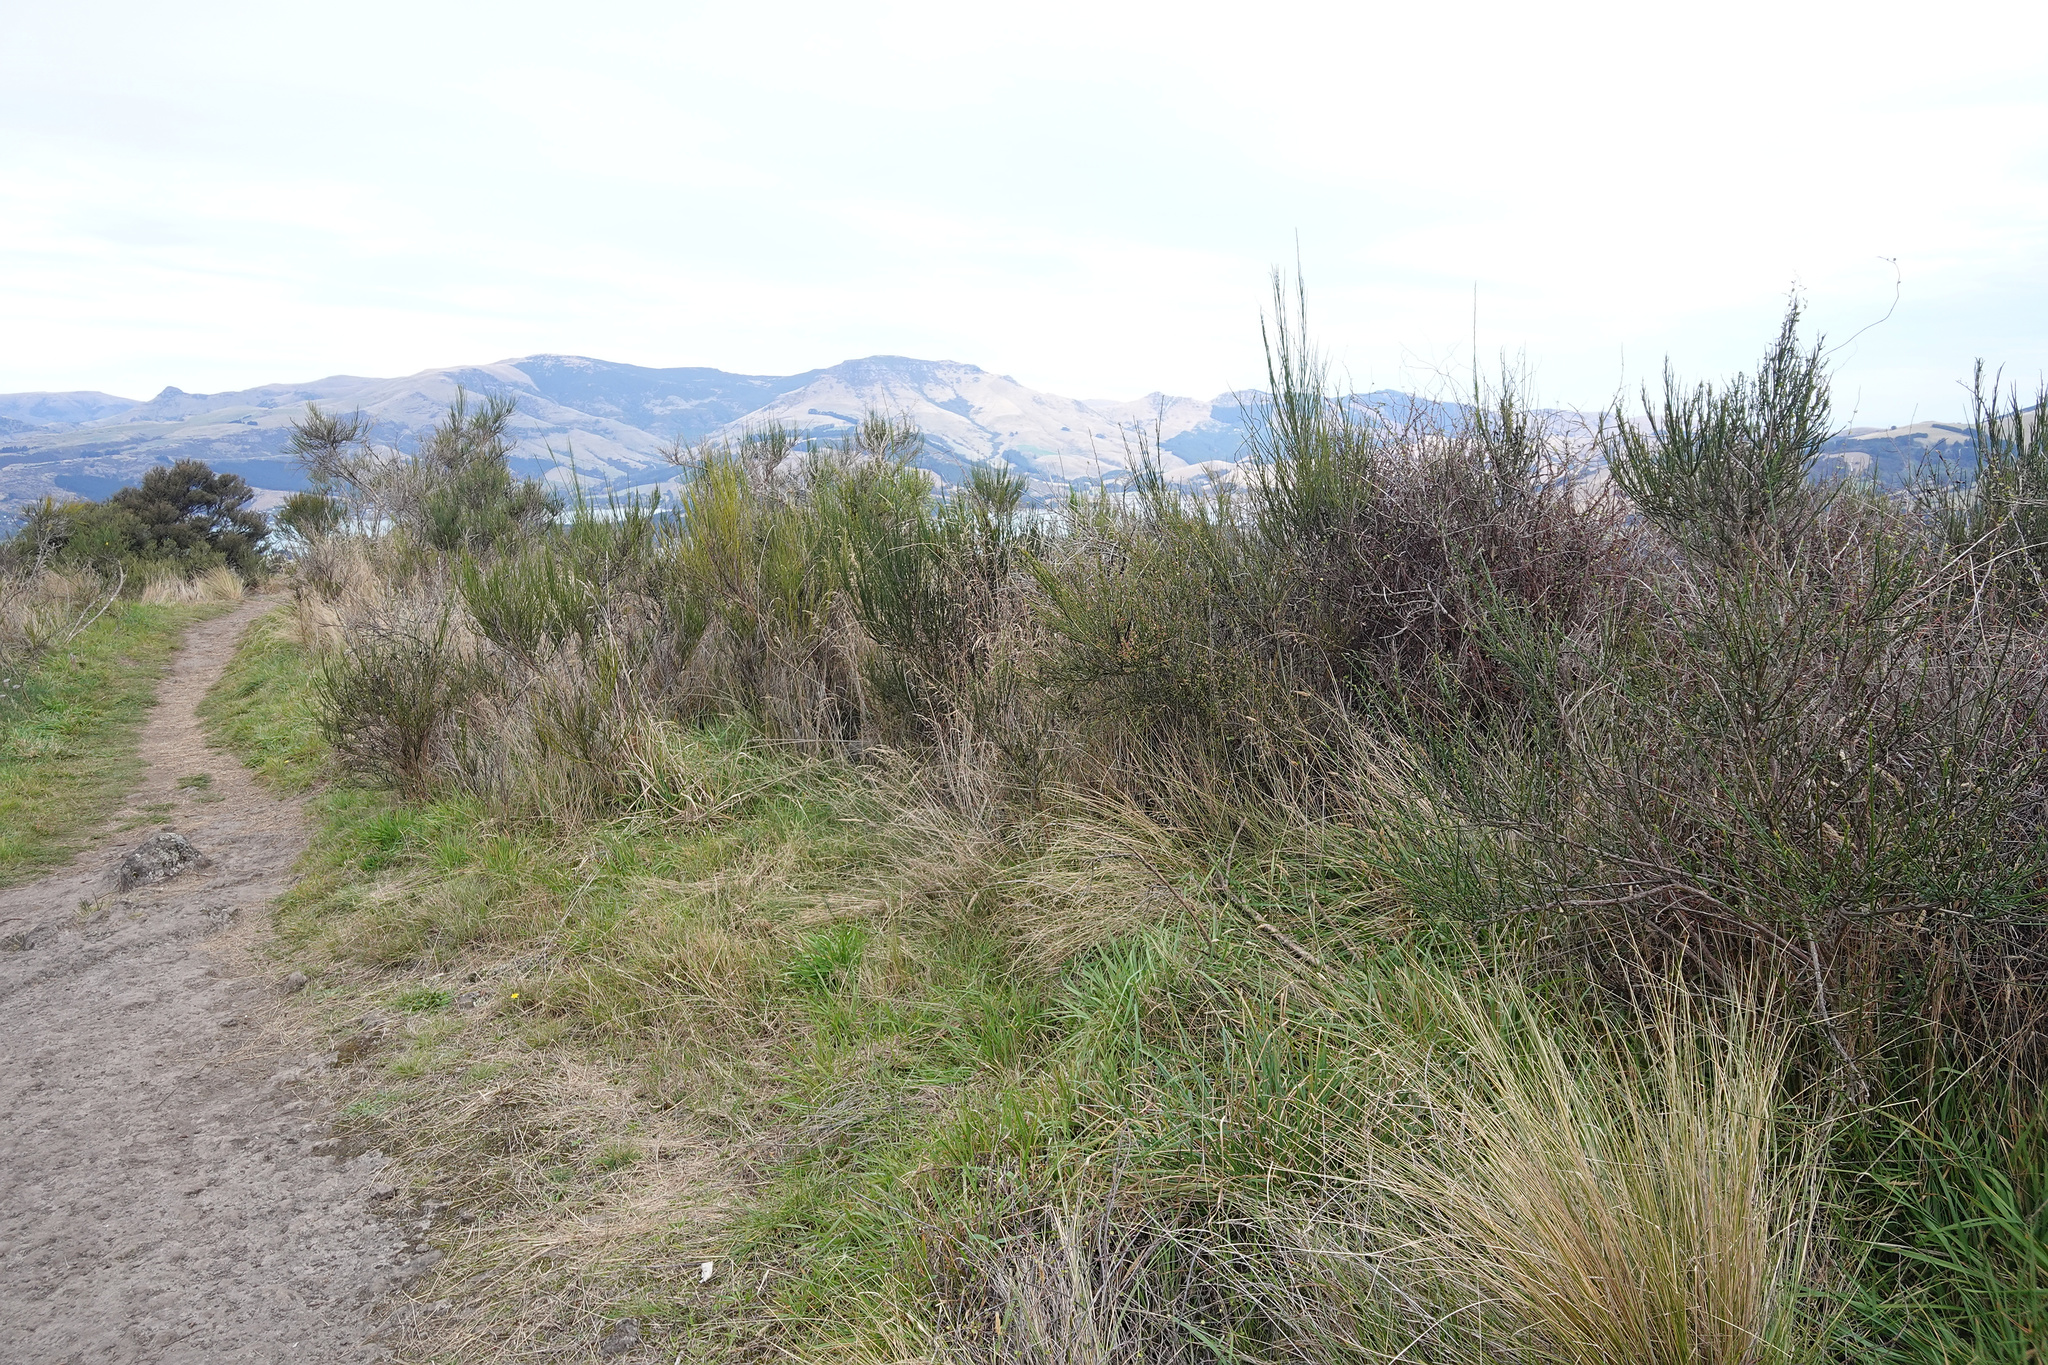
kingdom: Plantae
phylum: Tracheophyta
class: Magnoliopsida
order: Fabales
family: Fabaceae
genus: Cytisus
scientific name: Cytisus scoparius
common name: Scotch broom
